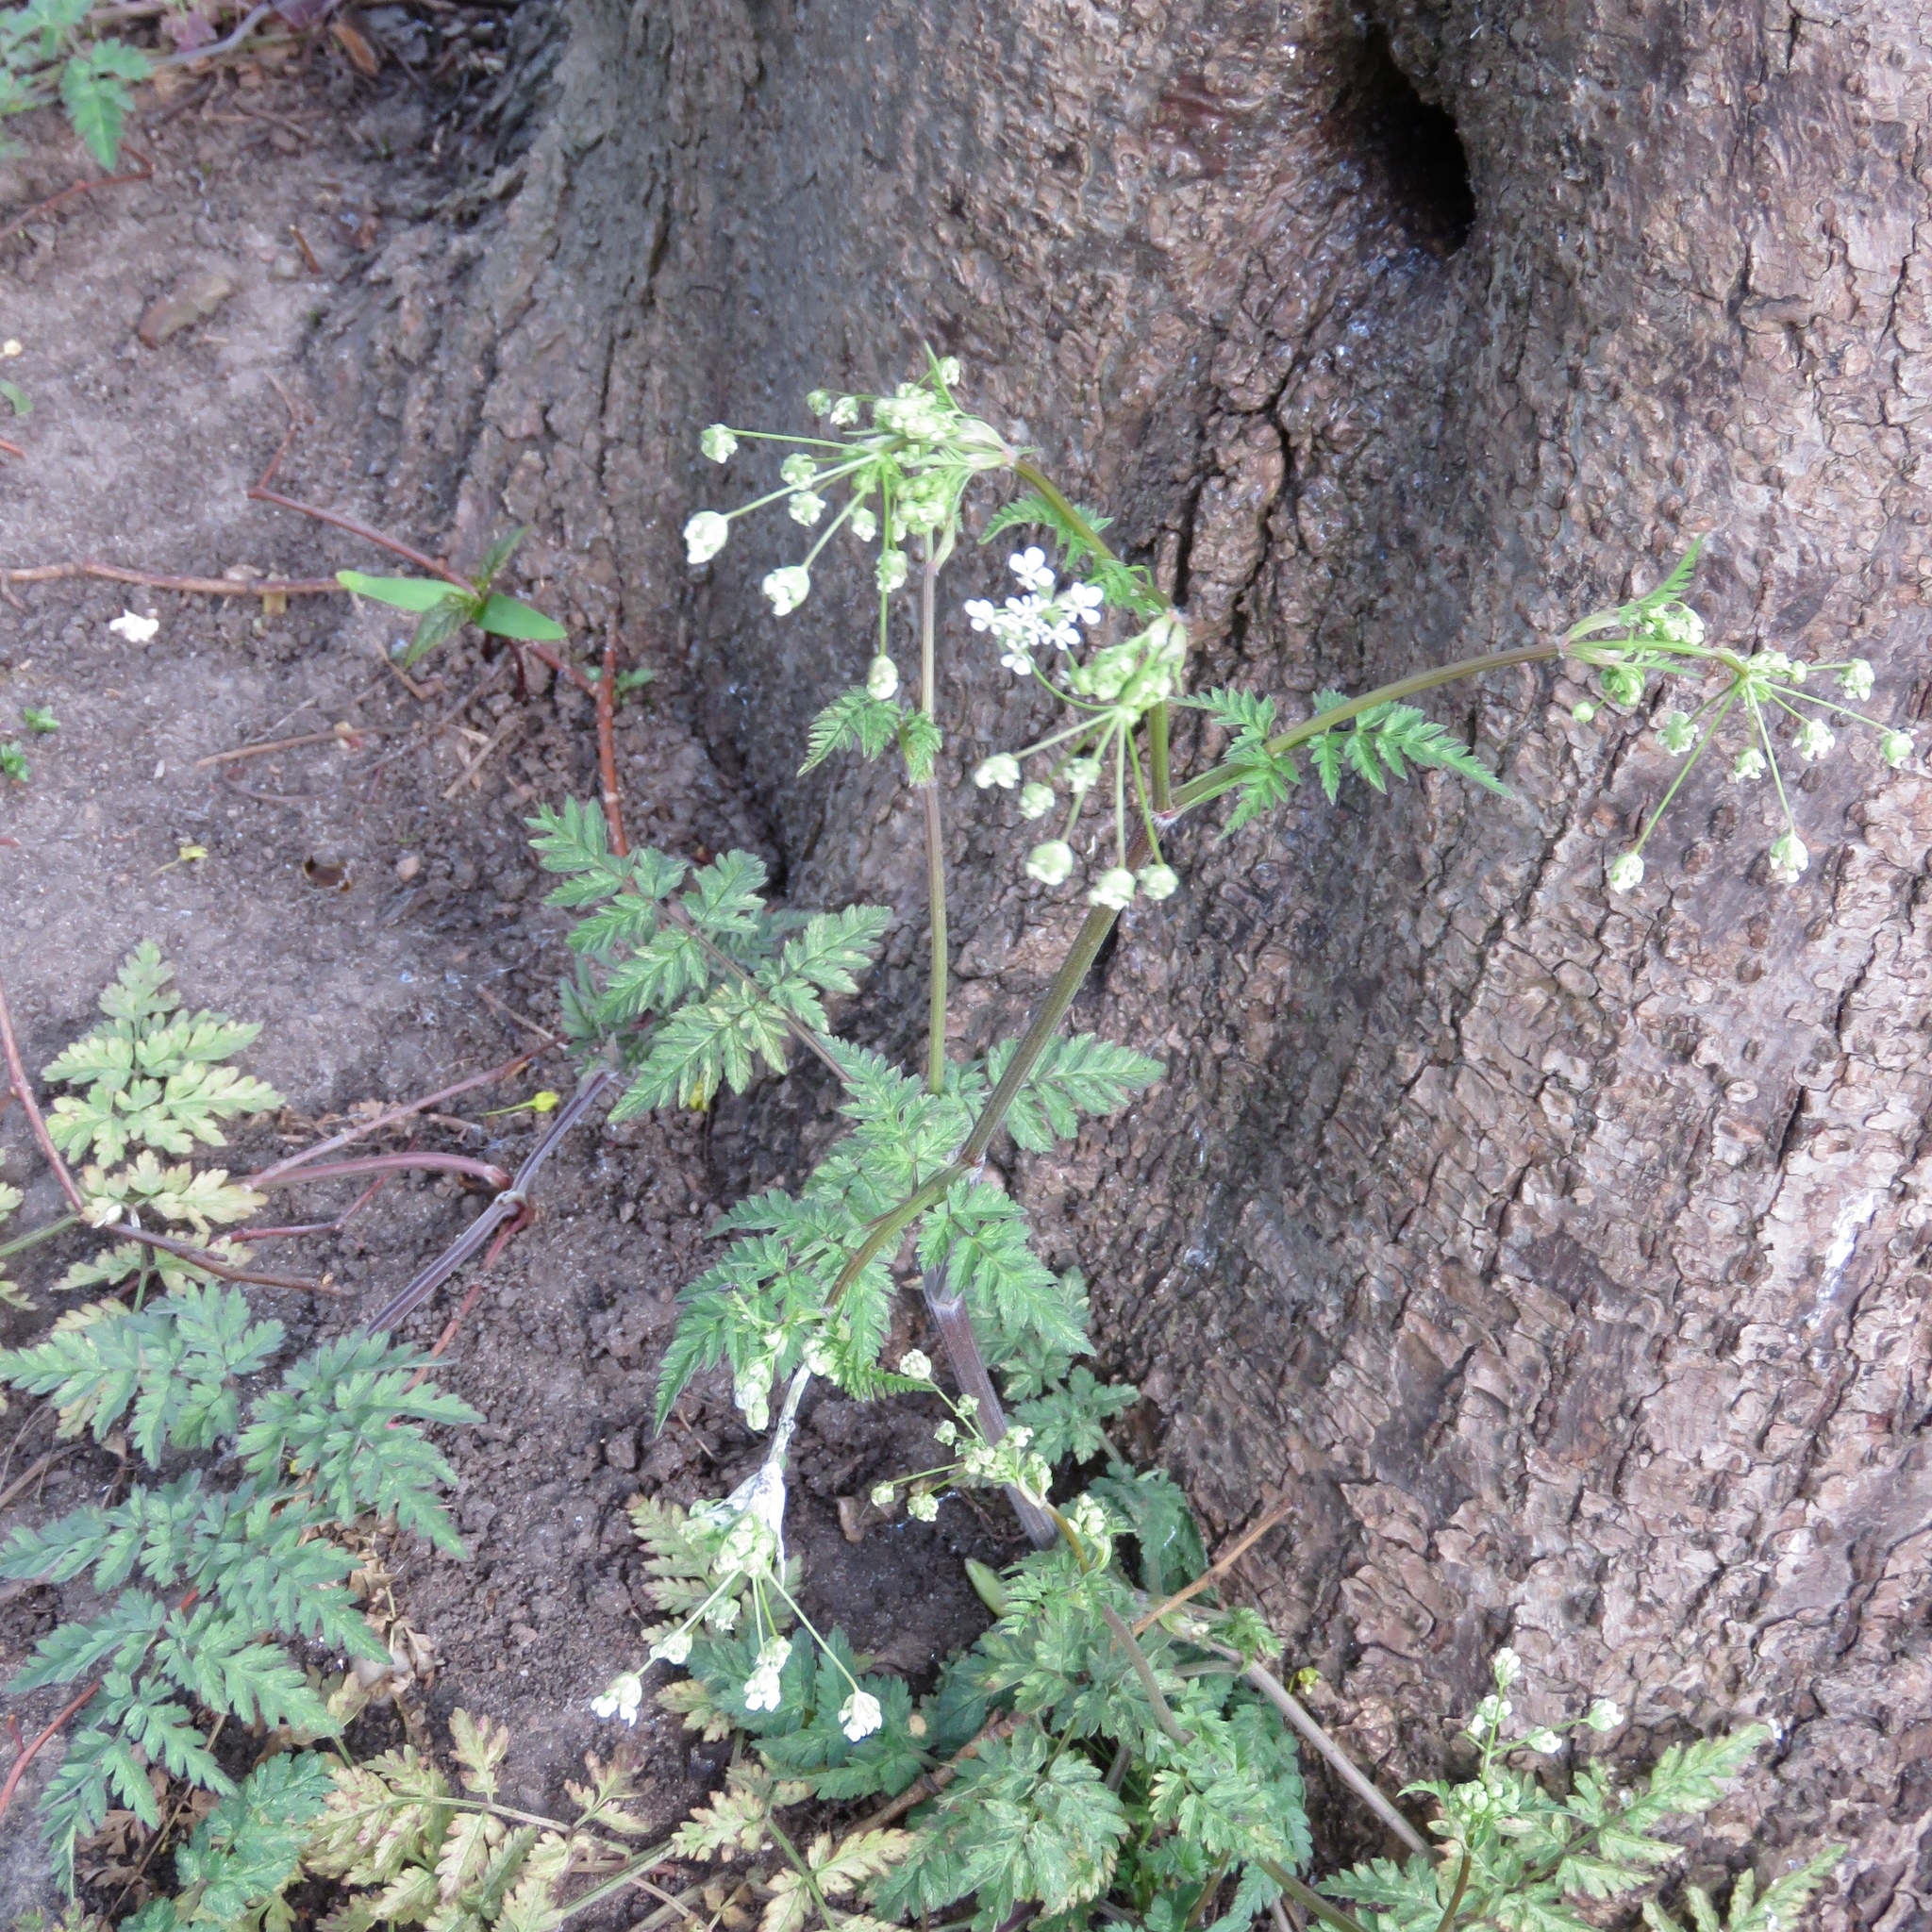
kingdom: Plantae
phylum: Tracheophyta
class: Magnoliopsida
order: Apiales
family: Apiaceae
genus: Anthriscus
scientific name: Anthriscus sylvestris
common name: Cow parsley
